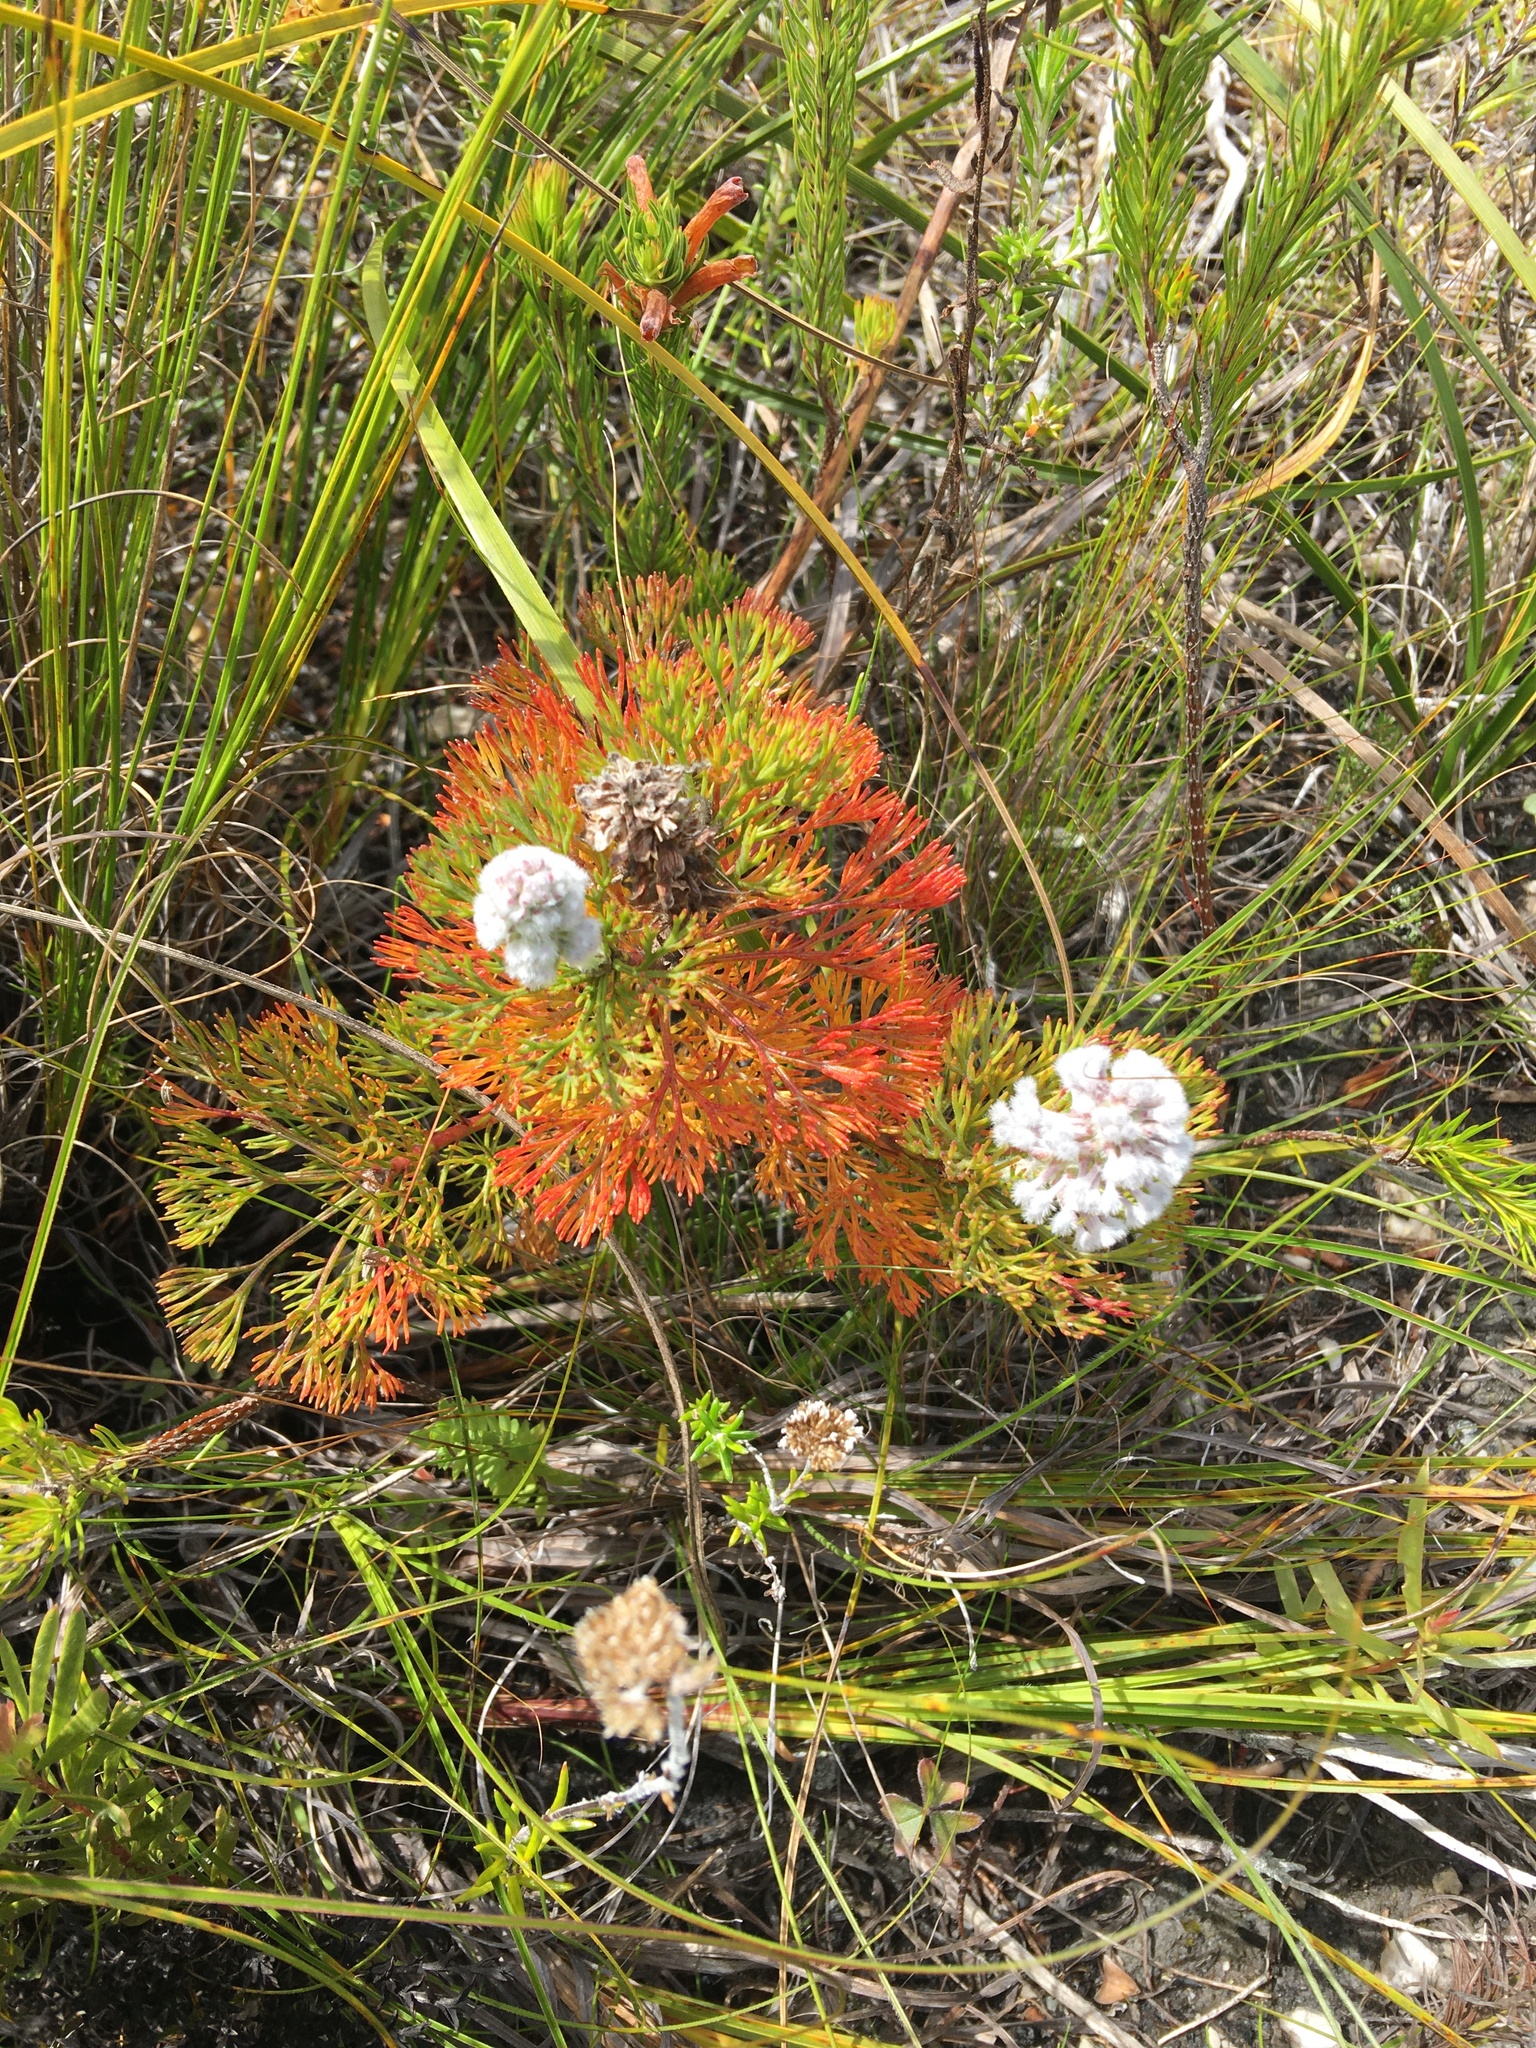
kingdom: Plantae
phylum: Tracheophyta
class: Magnoliopsida
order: Proteales
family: Proteaceae
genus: Paranomus
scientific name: Paranomus abrotanifolius
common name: Bredasdorp sceptre
